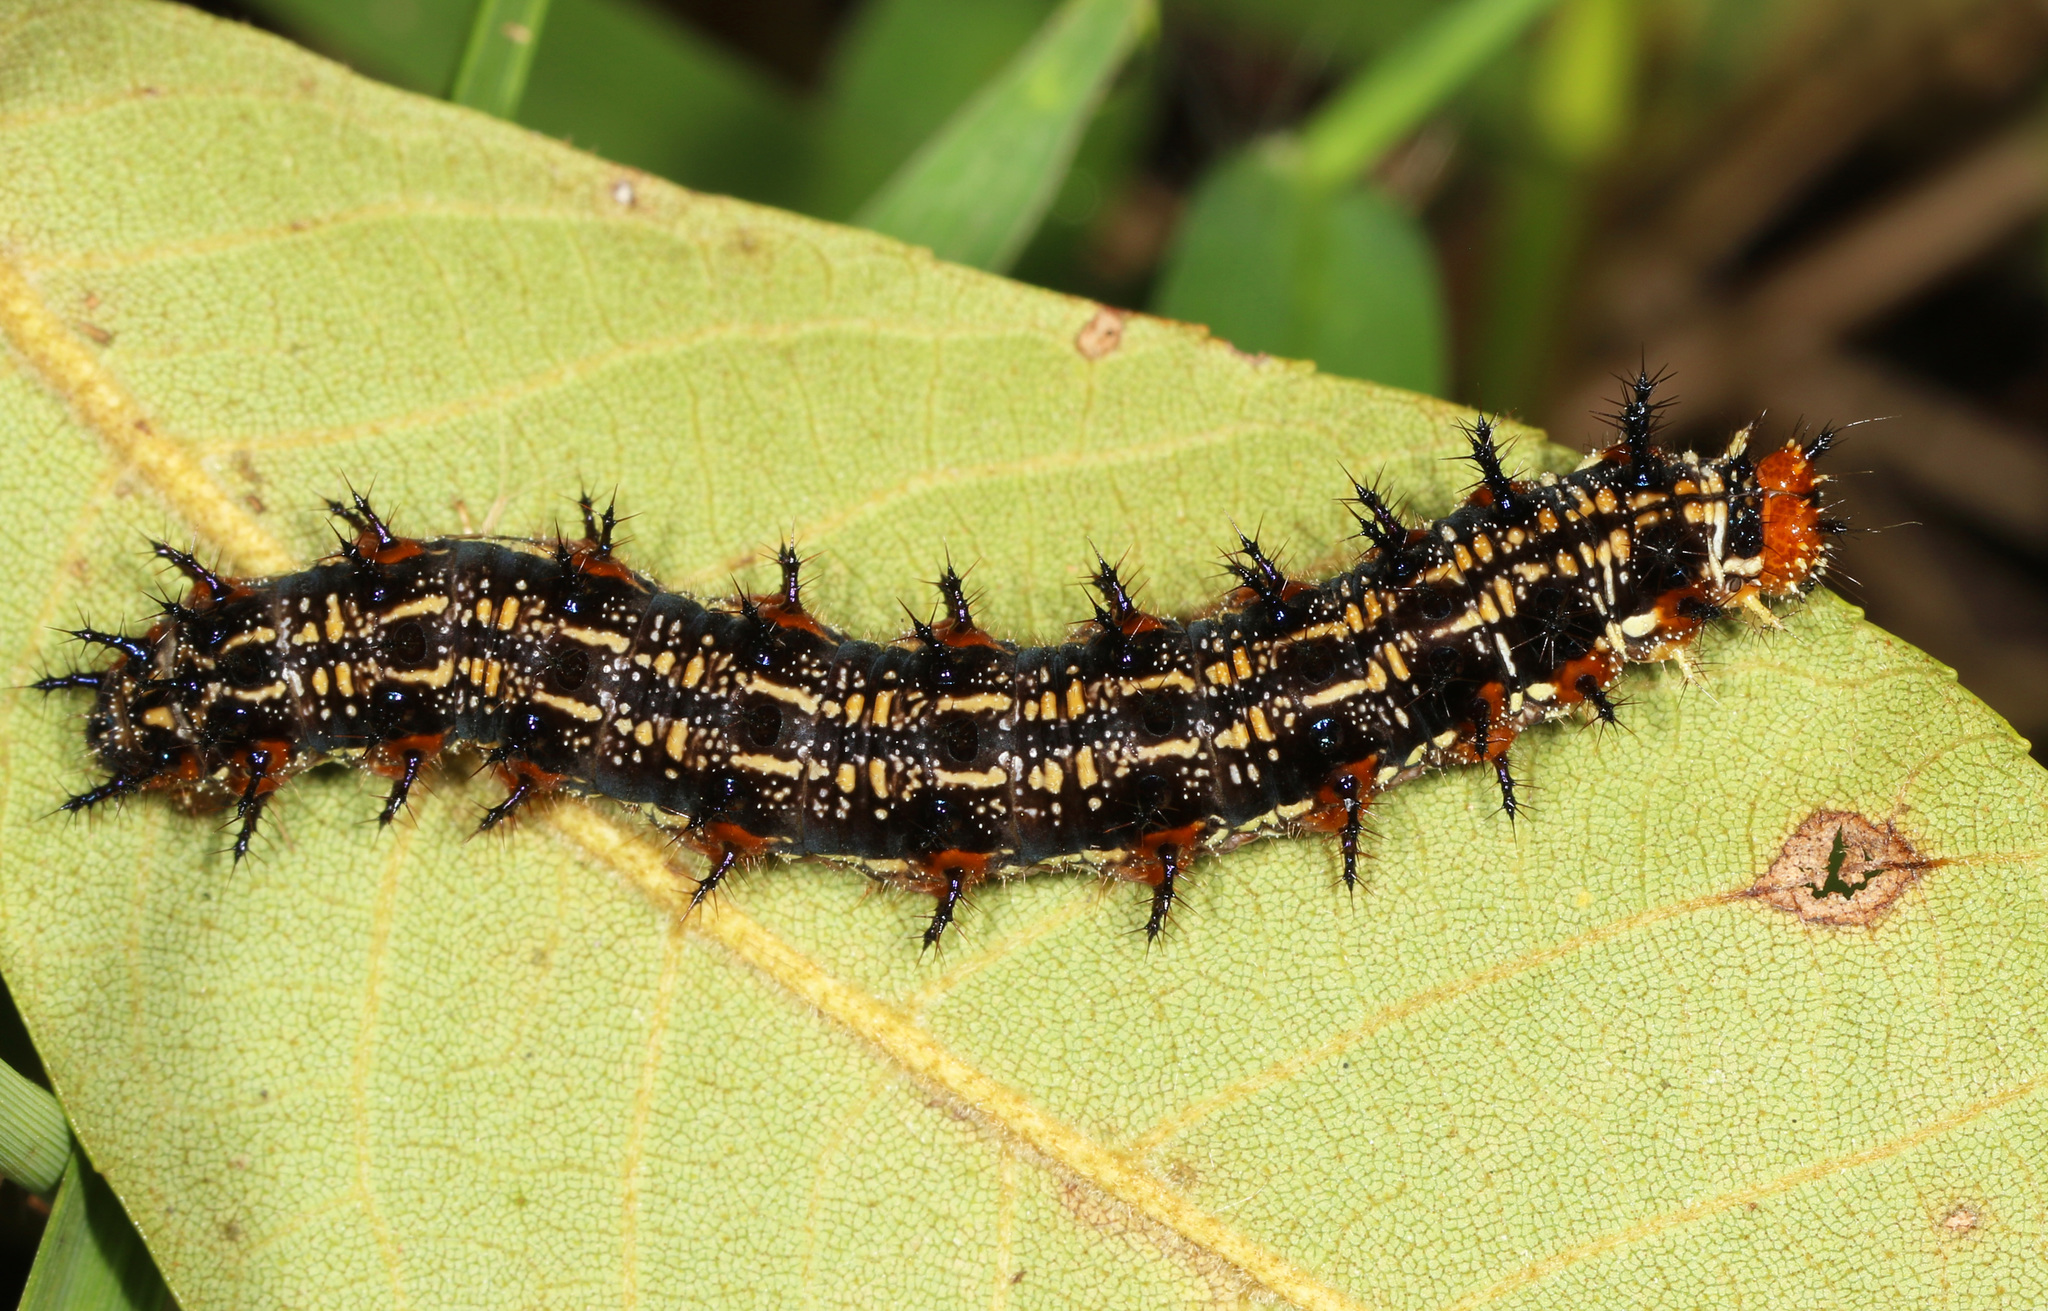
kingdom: Animalia
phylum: Arthropoda
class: Insecta
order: Lepidoptera
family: Nymphalidae
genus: Junonia
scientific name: Junonia coenia
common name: Common buckeye
